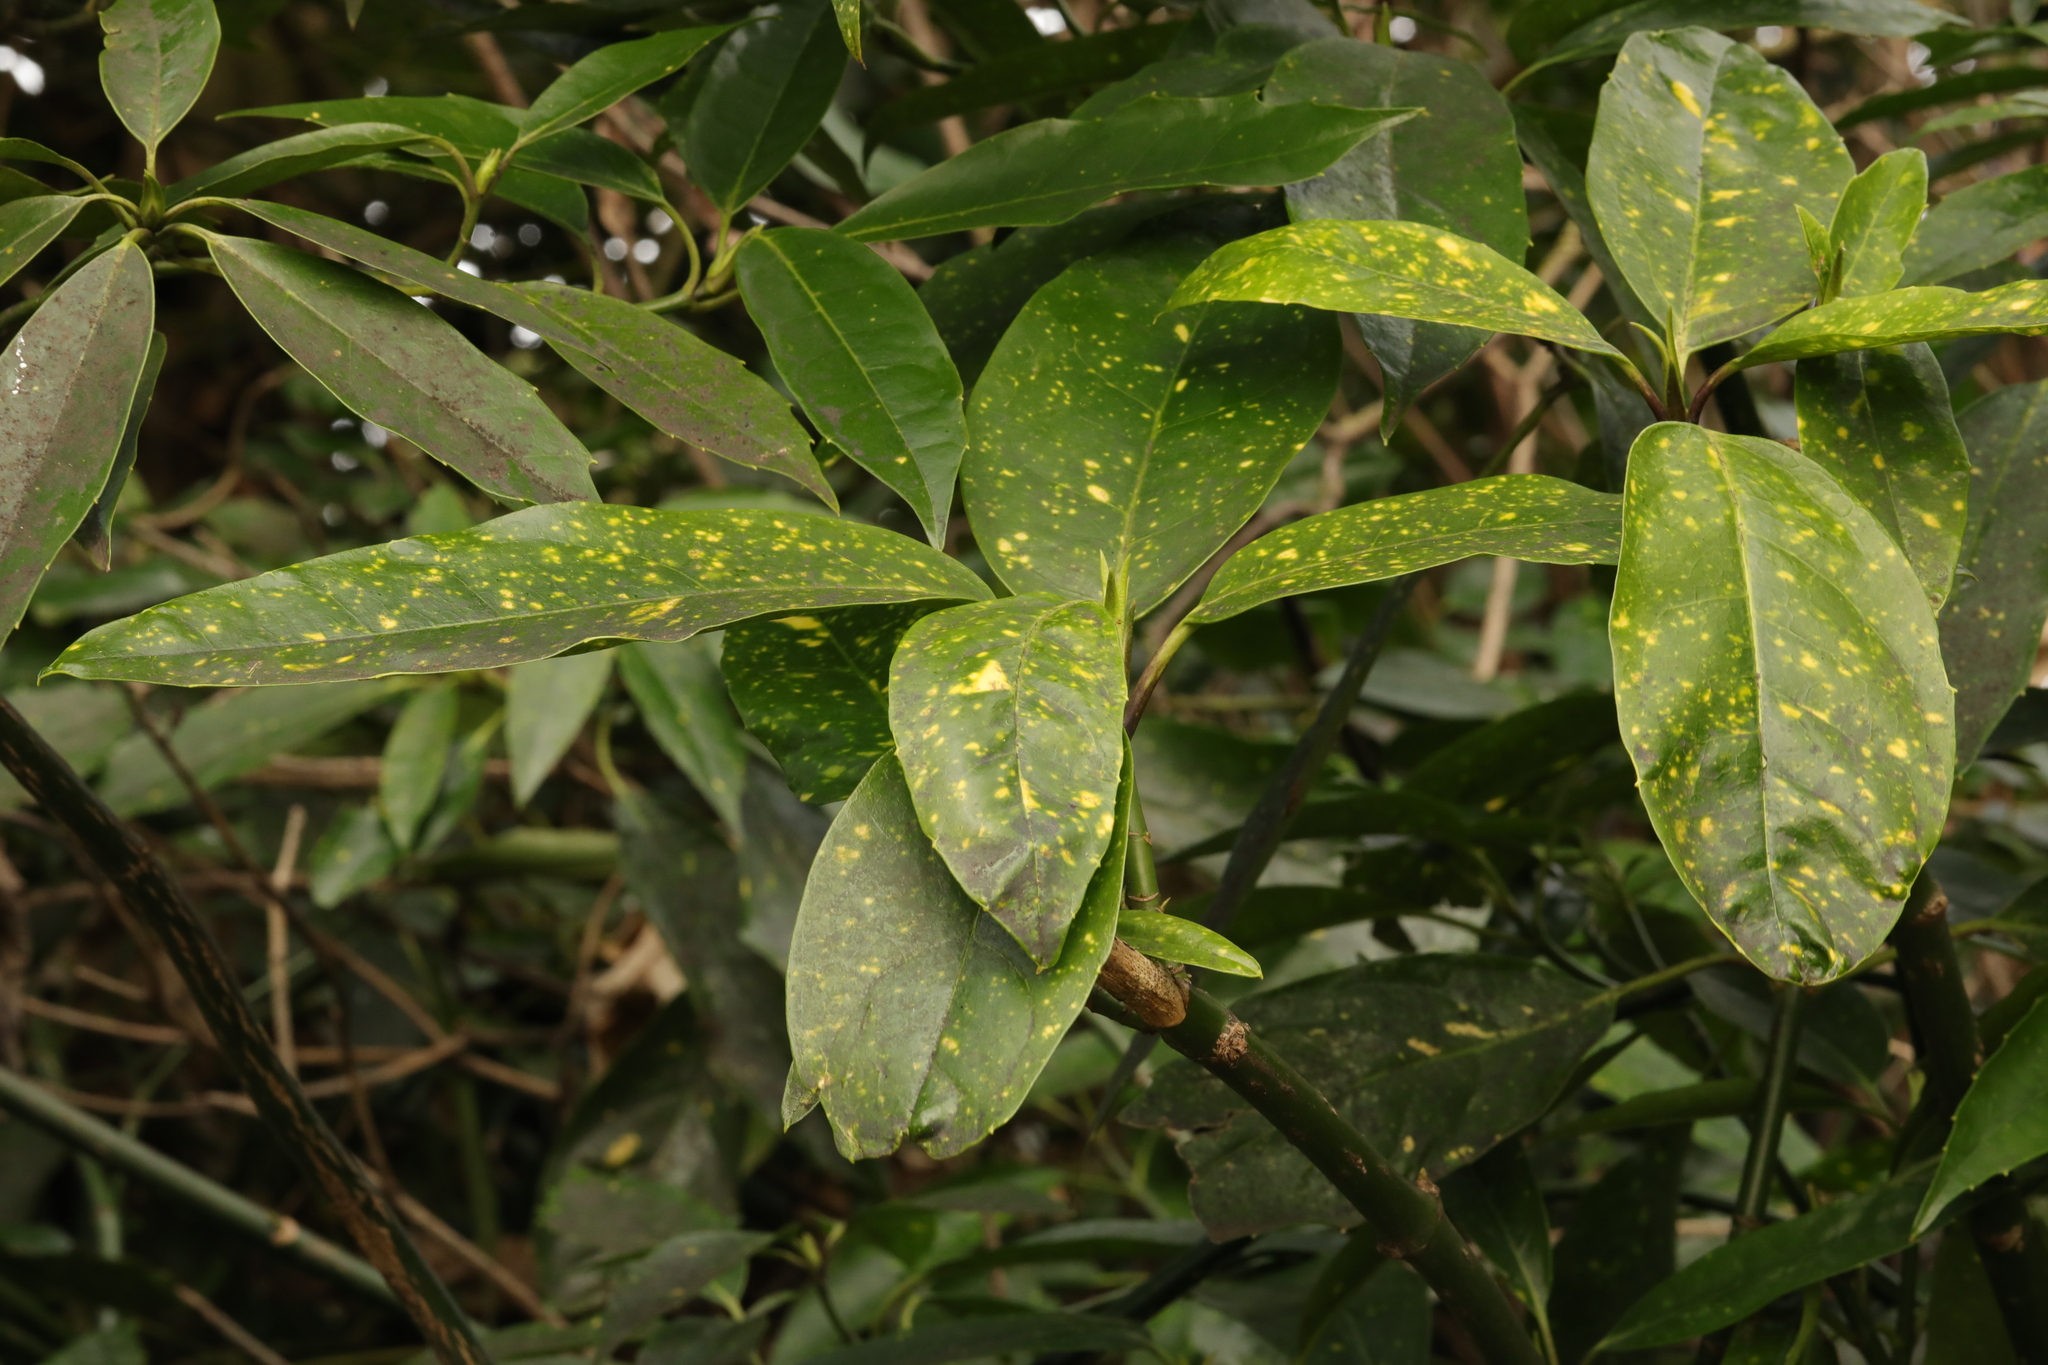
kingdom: Plantae
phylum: Tracheophyta
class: Magnoliopsida
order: Garryales
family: Garryaceae
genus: Aucuba
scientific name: Aucuba japonica
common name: Spotted-laurel
